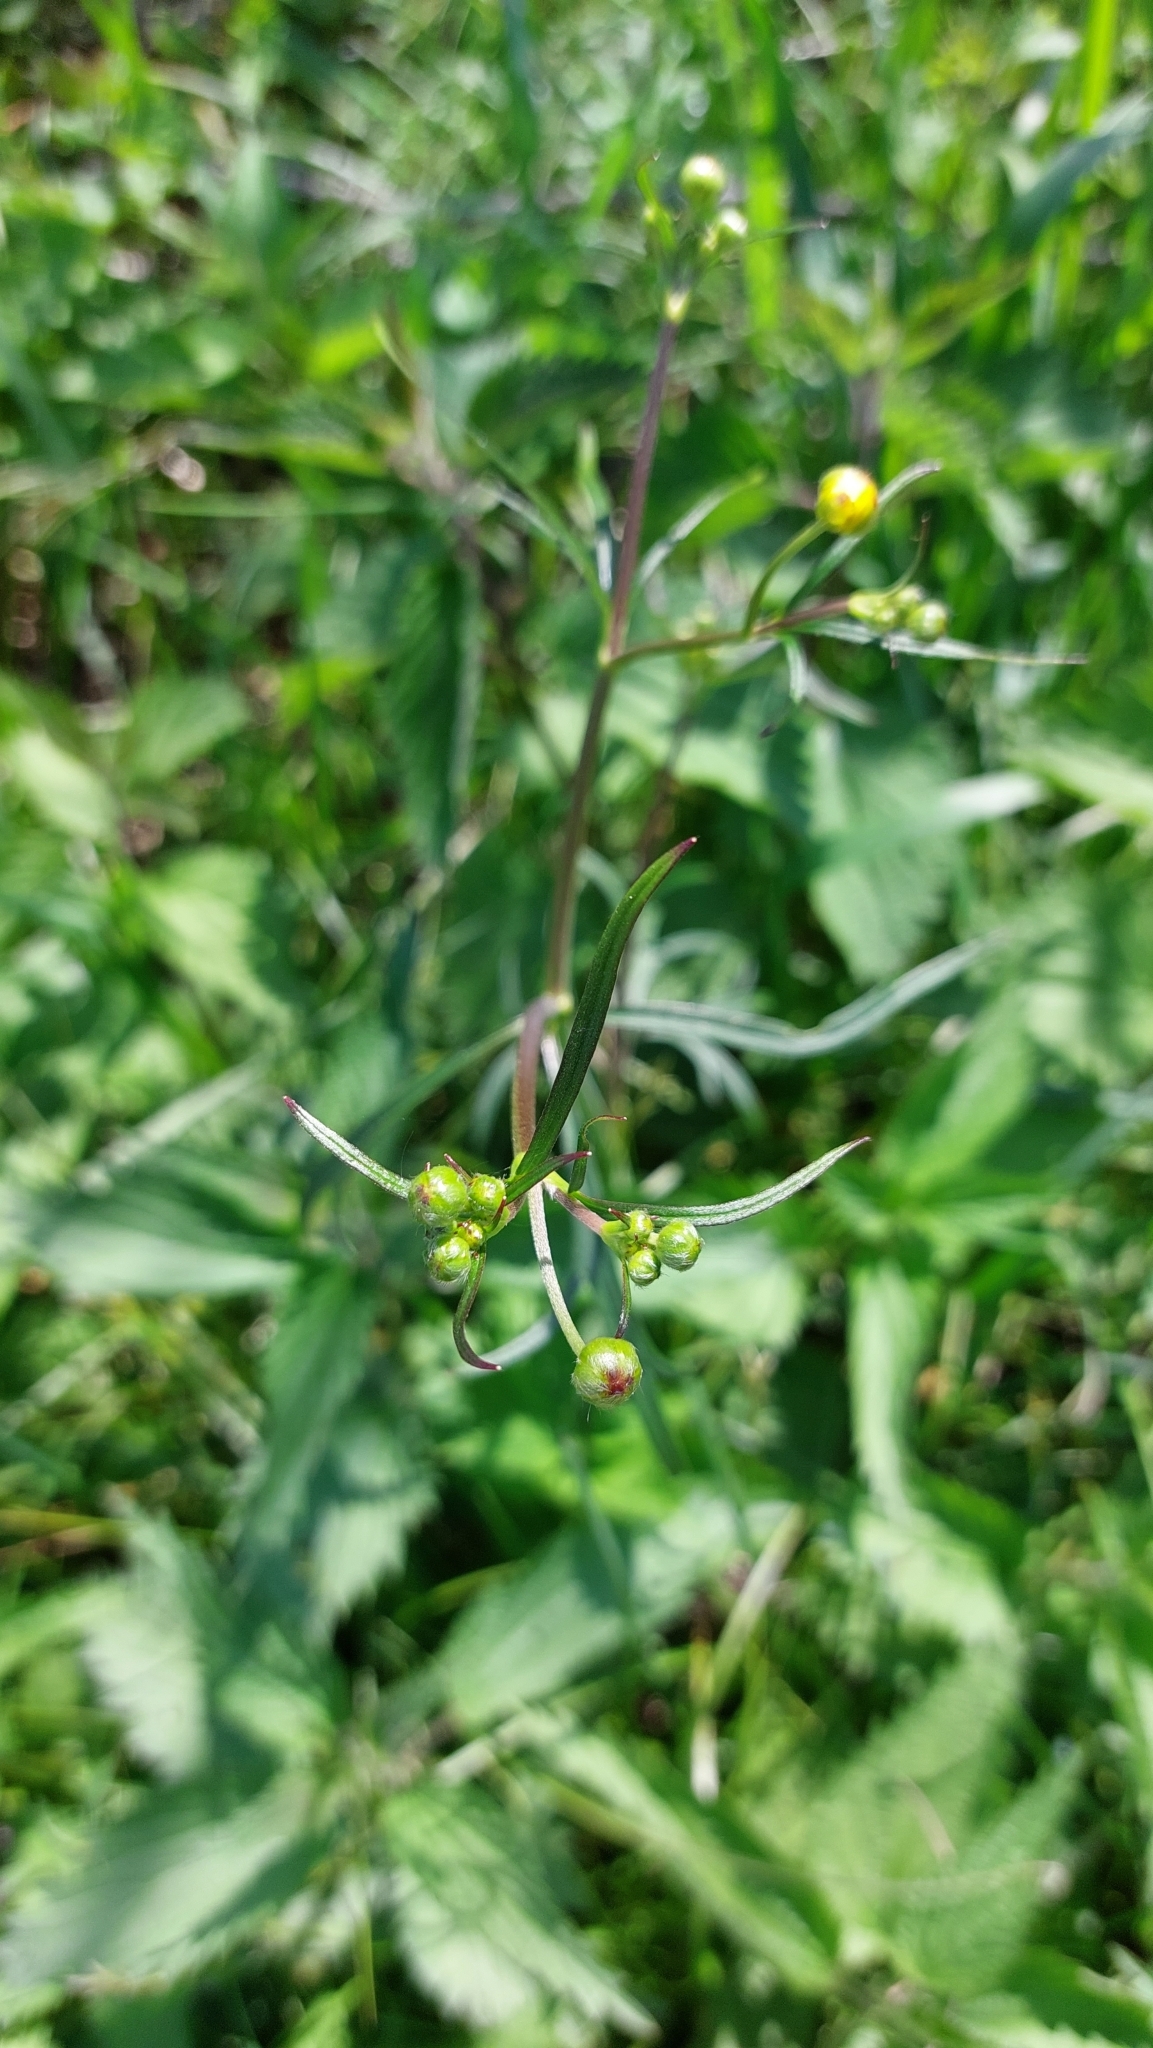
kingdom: Plantae
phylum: Tracheophyta
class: Magnoliopsida
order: Ranunculales
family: Ranunculaceae
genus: Ranunculus
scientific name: Ranunculus acris
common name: Meadow buttercup
